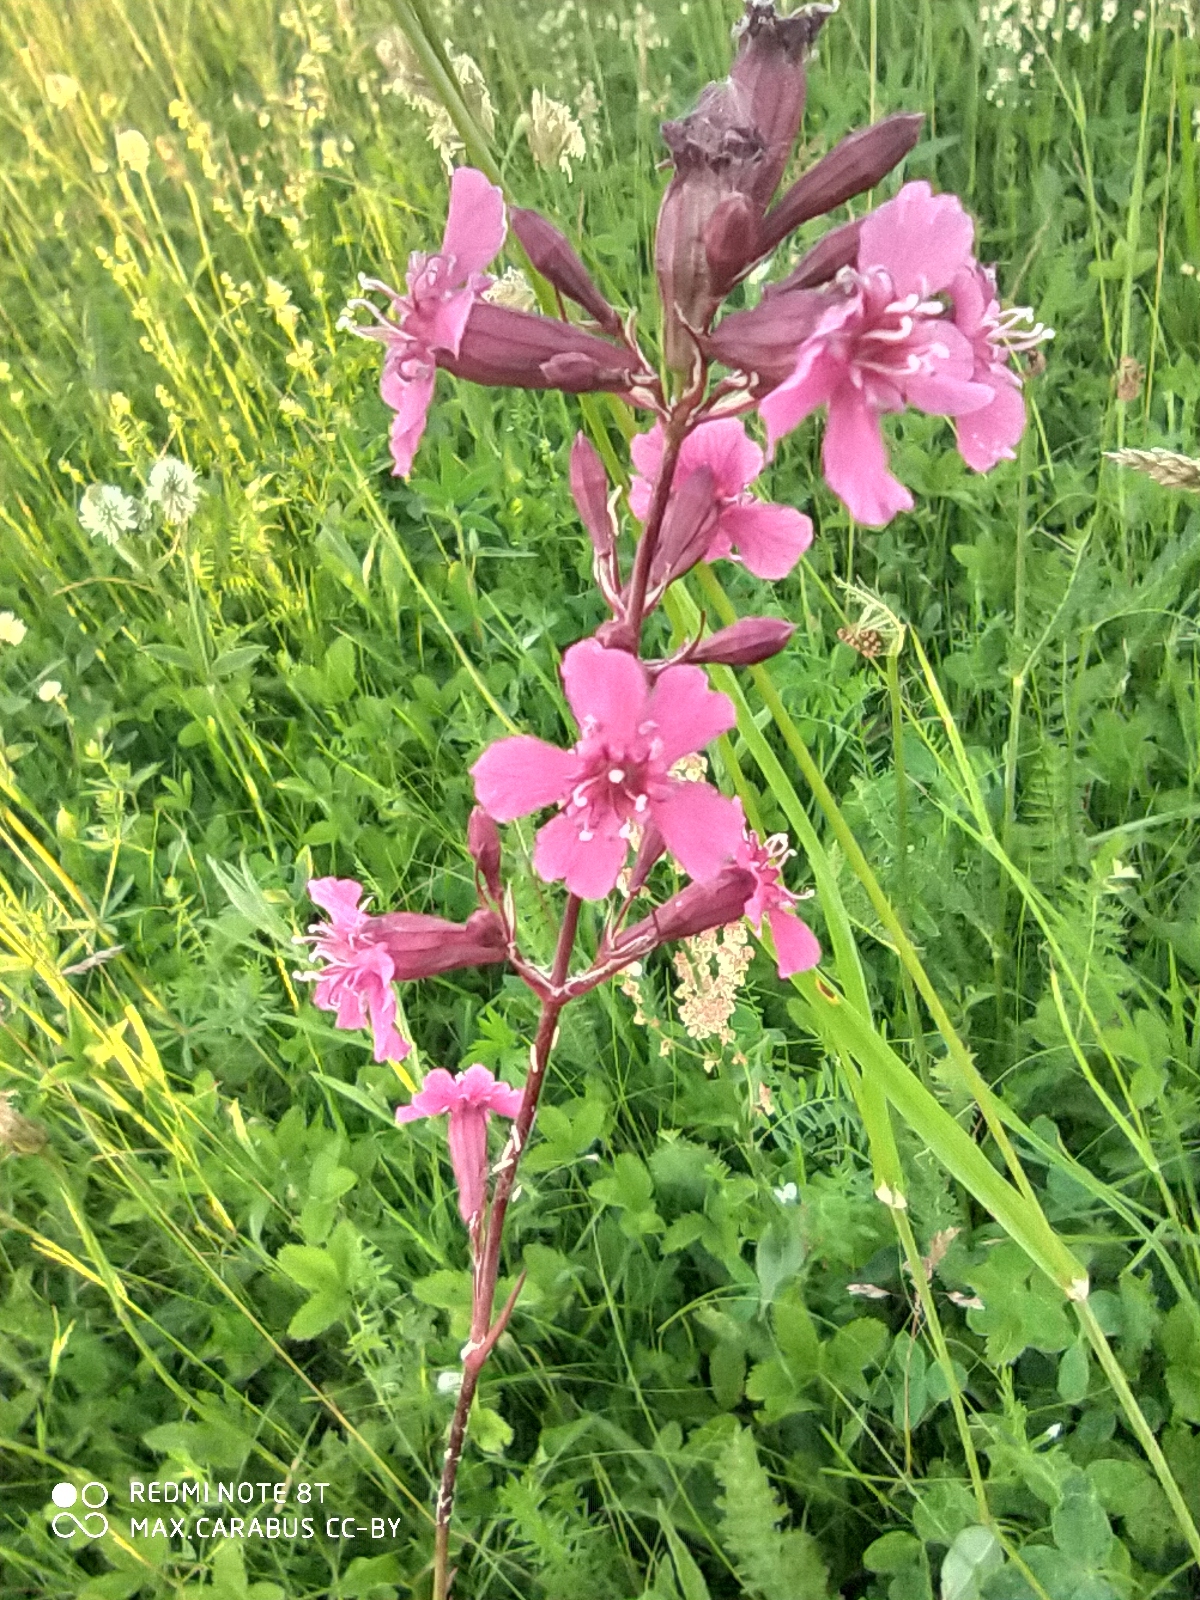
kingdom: Plantae
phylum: Tracheophyta
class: Magnoliopsida
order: Caryophyllales
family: Caryophyllaceae
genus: Viscaria
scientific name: Viscaria vulgaris
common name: Clammy campion
